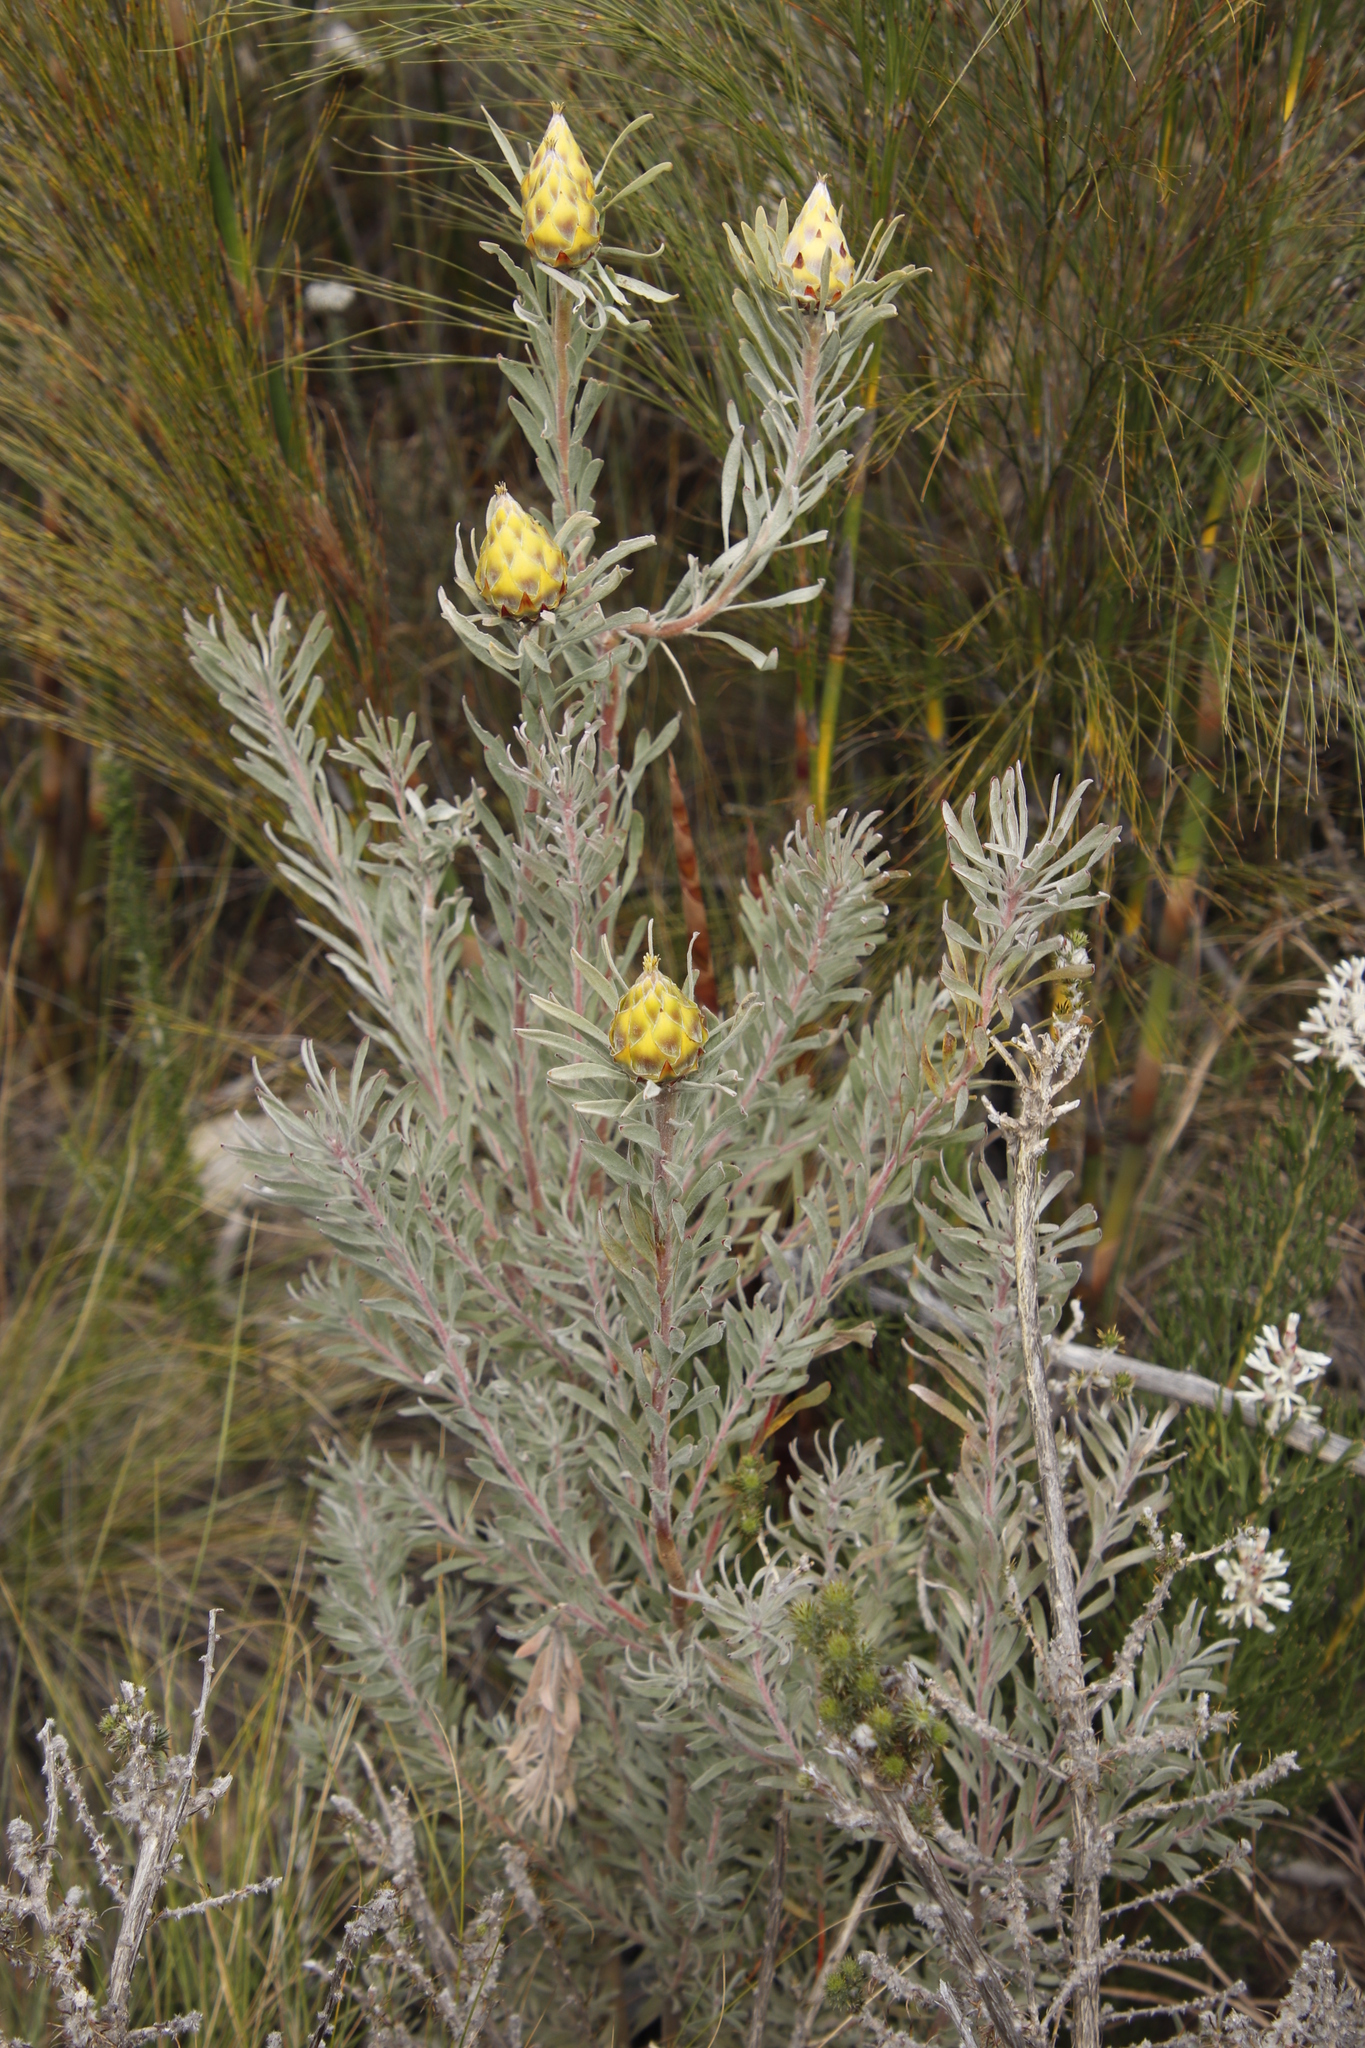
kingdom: Plantae
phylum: Tracheophyta
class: Magnoliopsida
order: Proteales
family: Proteaceae
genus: Leucadendron
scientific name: Leucadendron rubrum
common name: Spinning top
